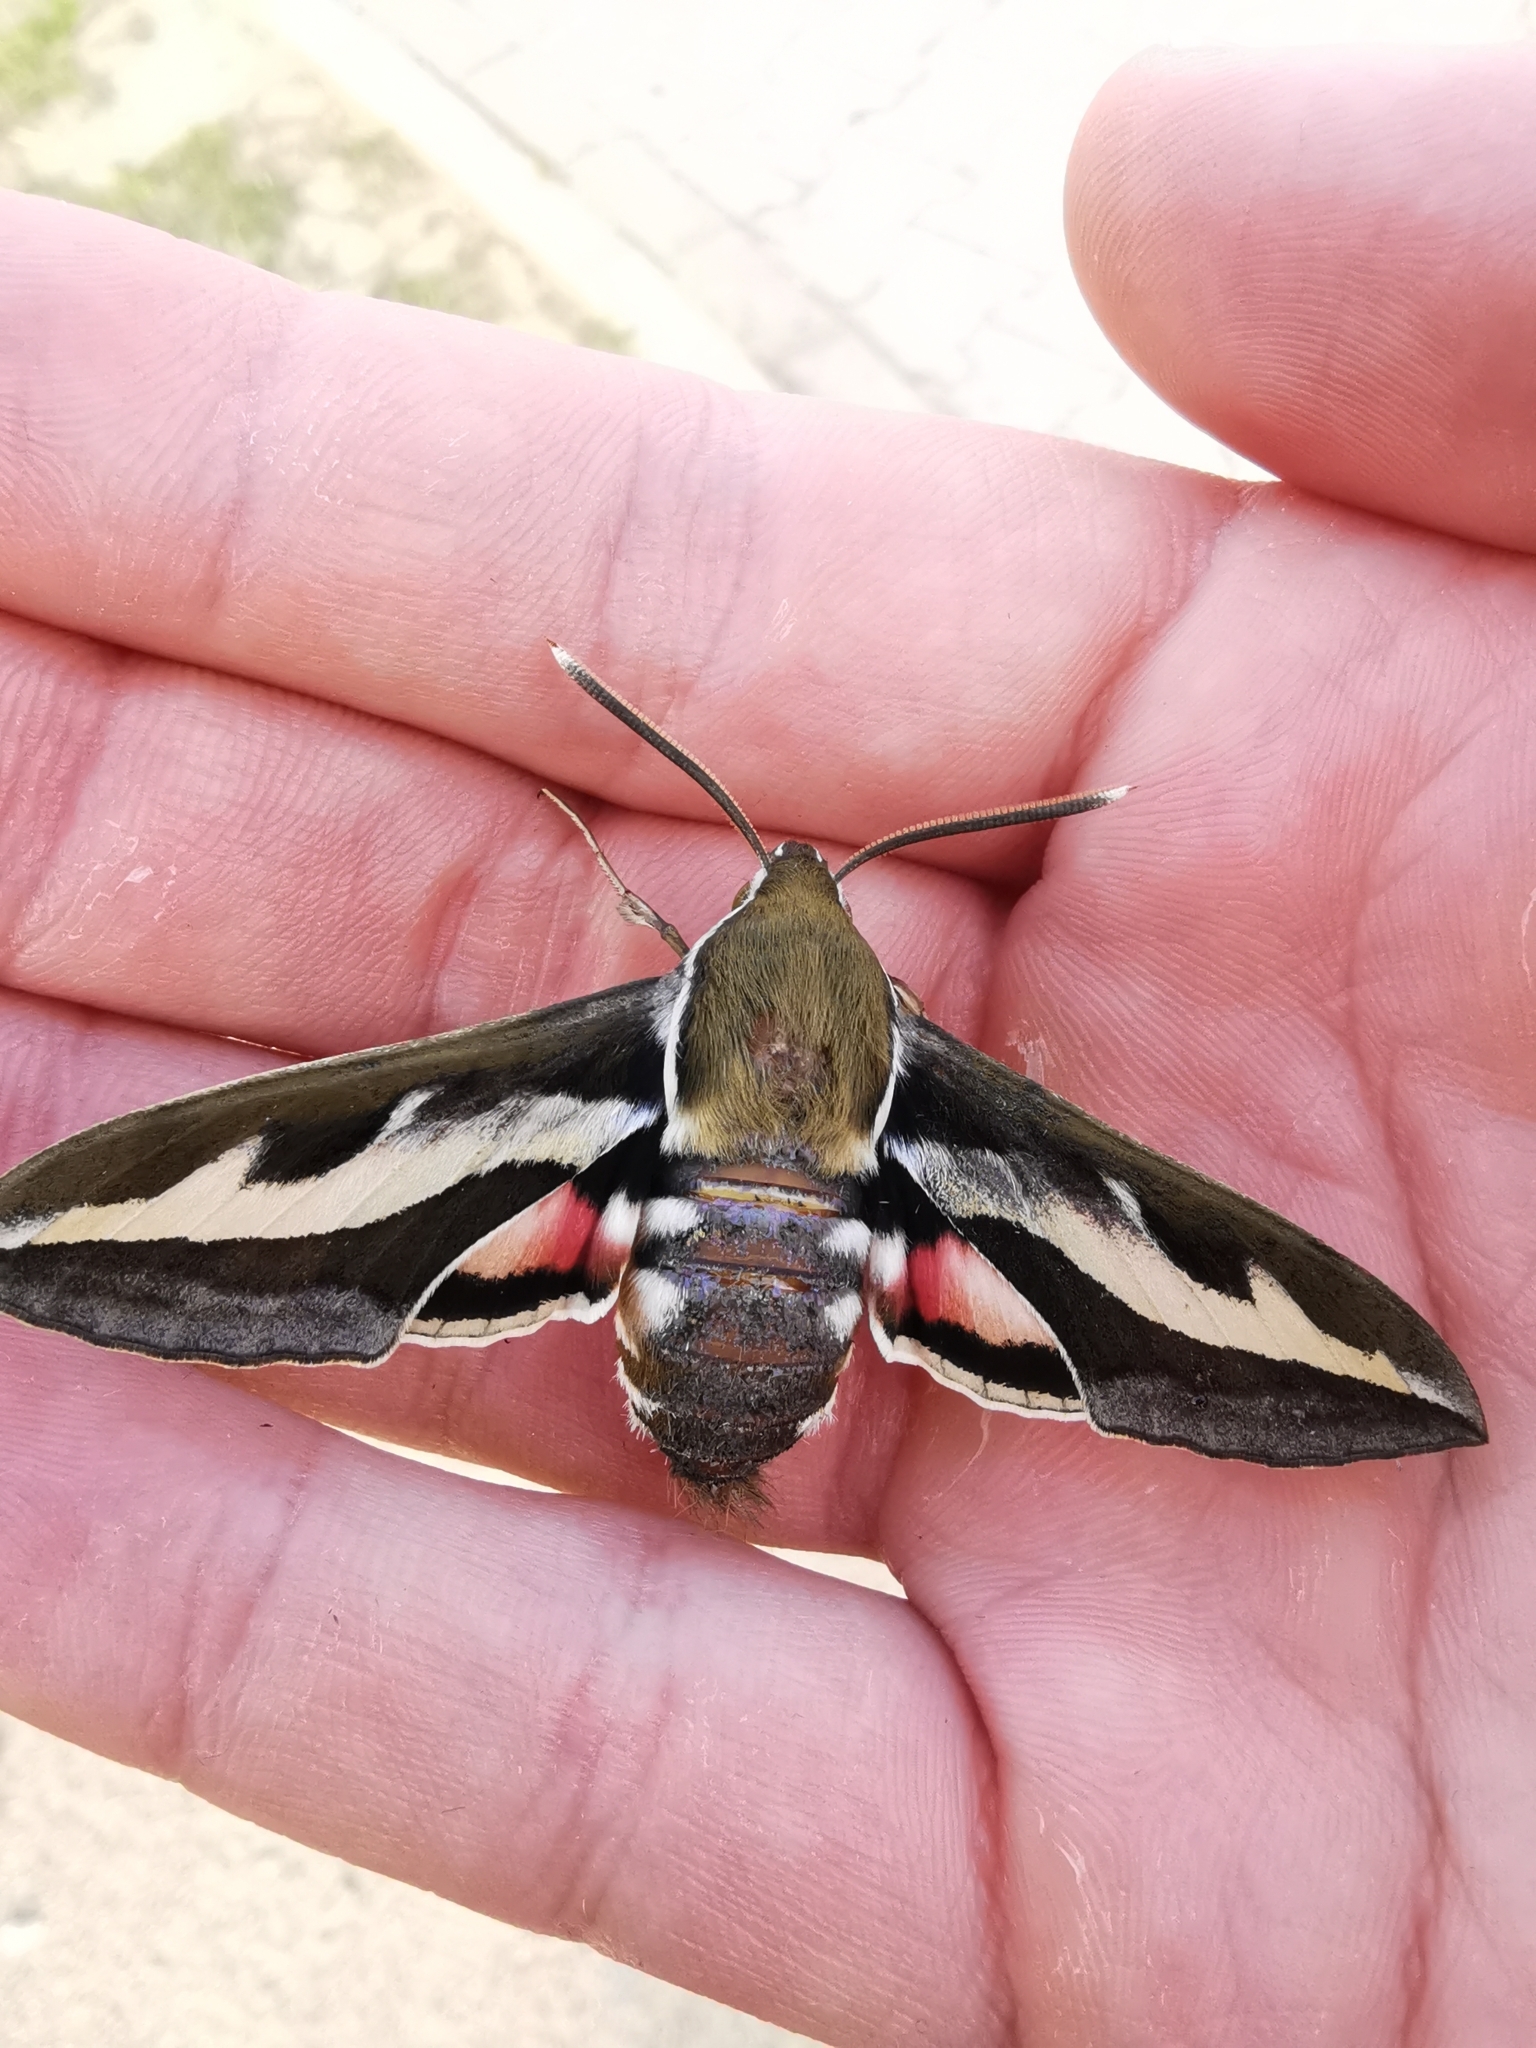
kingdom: Animalia
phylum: Arthropoda
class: Insecta
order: Lepidoptera
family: Sphingidae
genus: Hyles
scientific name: Hyles gallii
